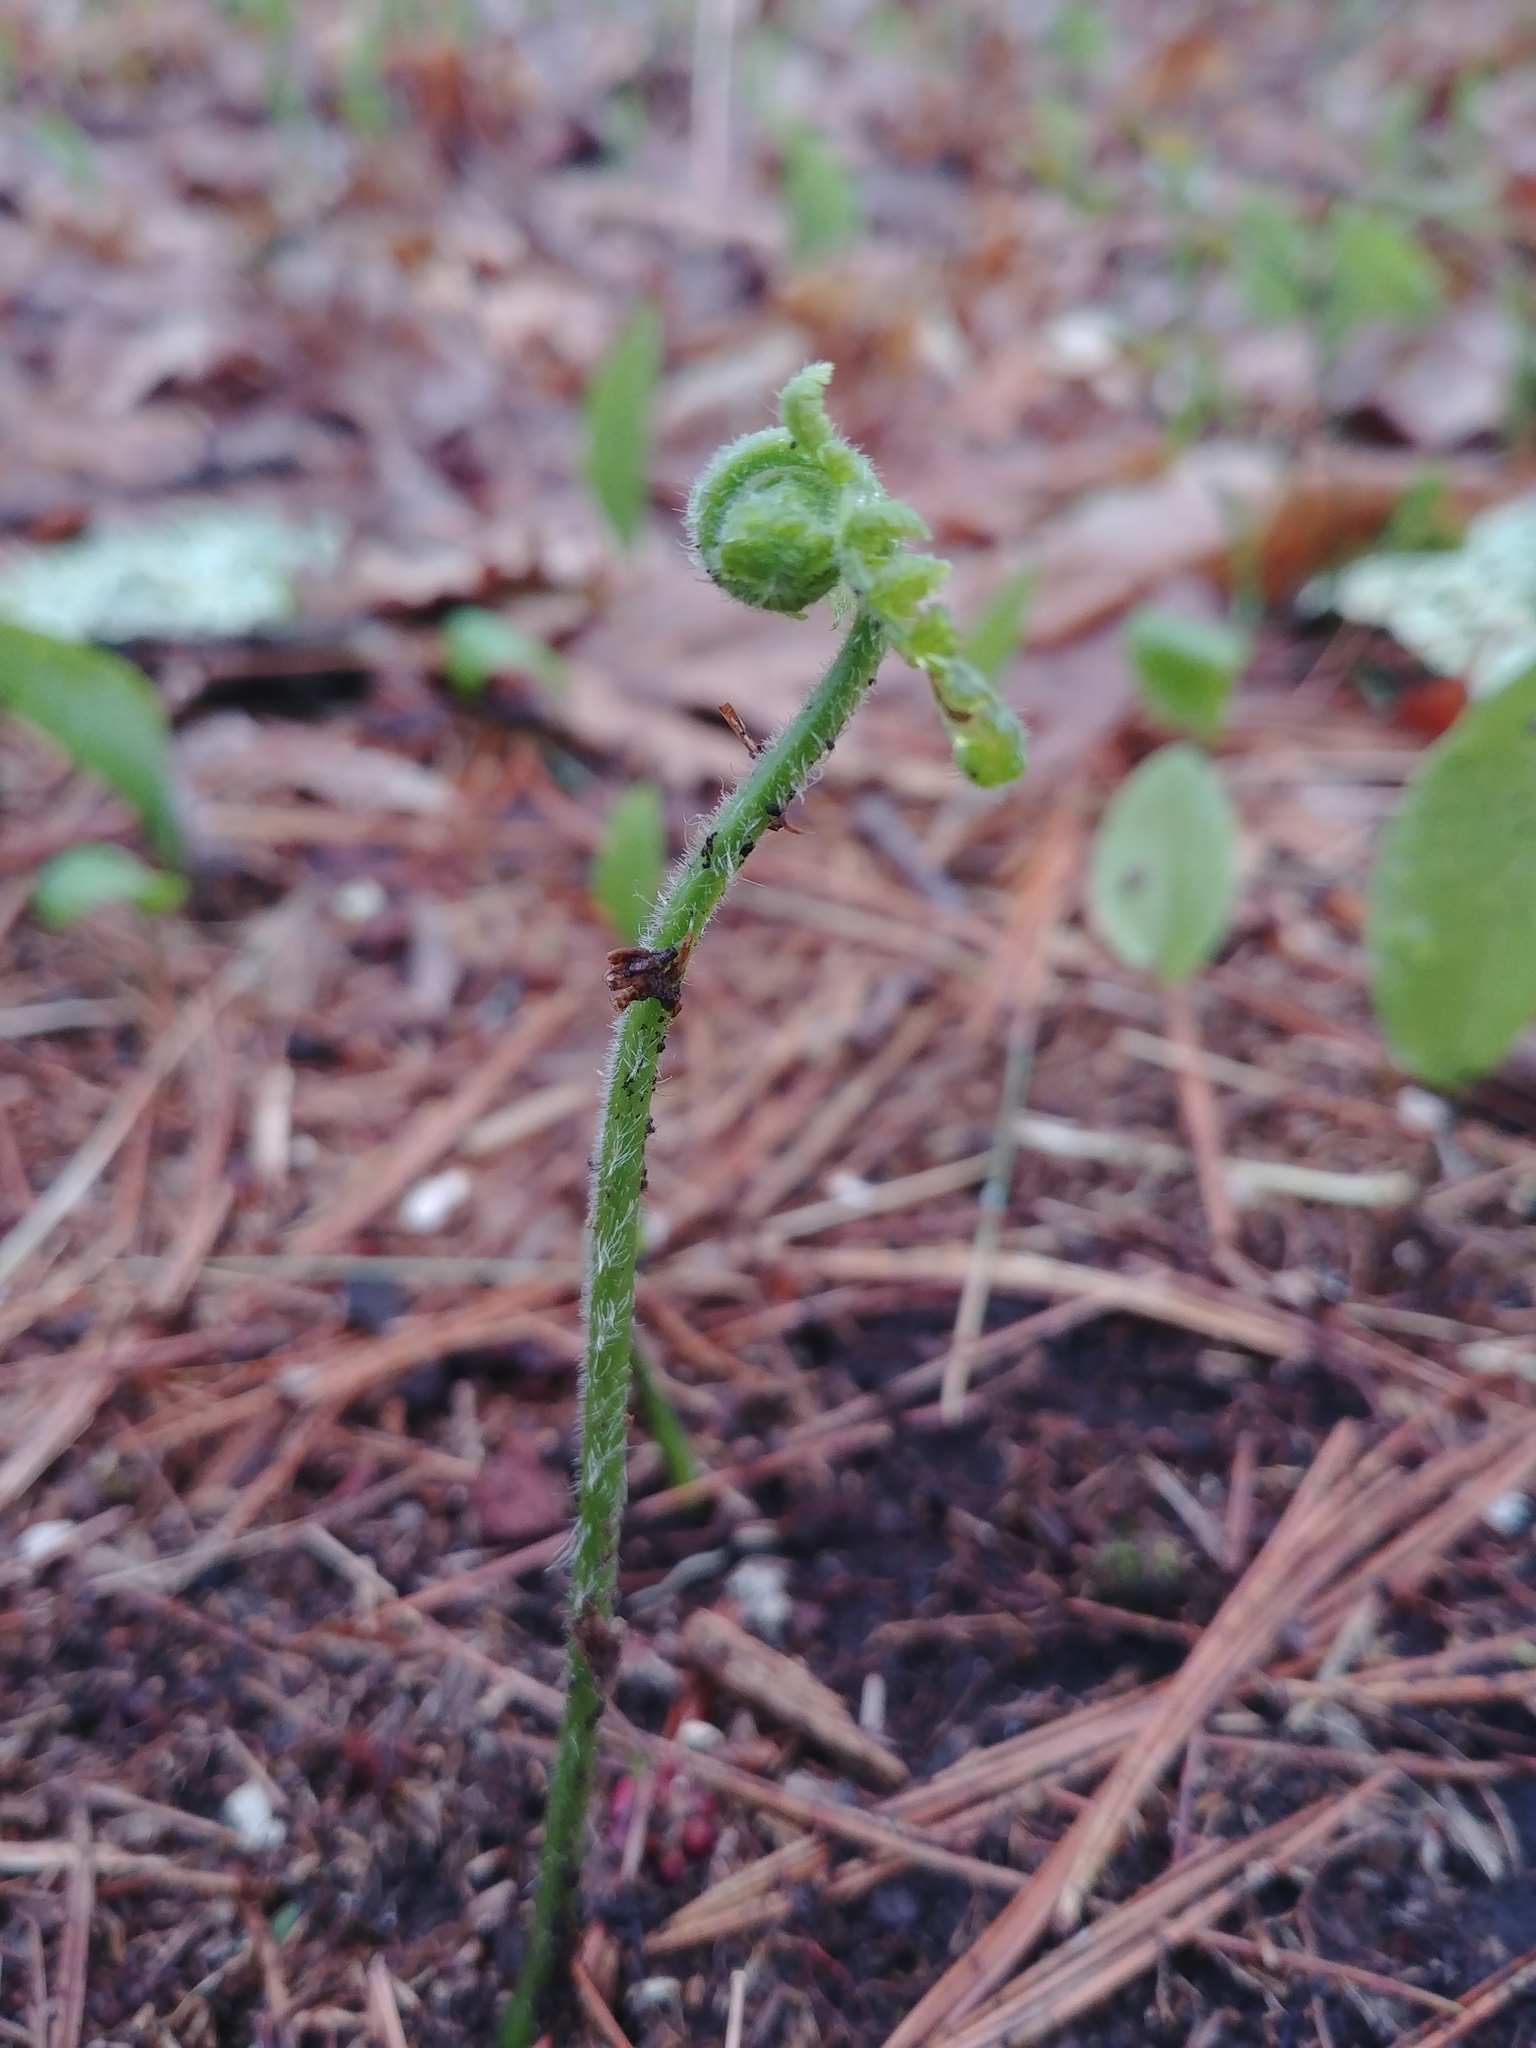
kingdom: Plantae
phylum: Tracheophyta
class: Polypodiopsida
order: Polypodiales
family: Dennstaedtiaceae
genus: Sitobolium
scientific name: Sitobolium punctilobum
